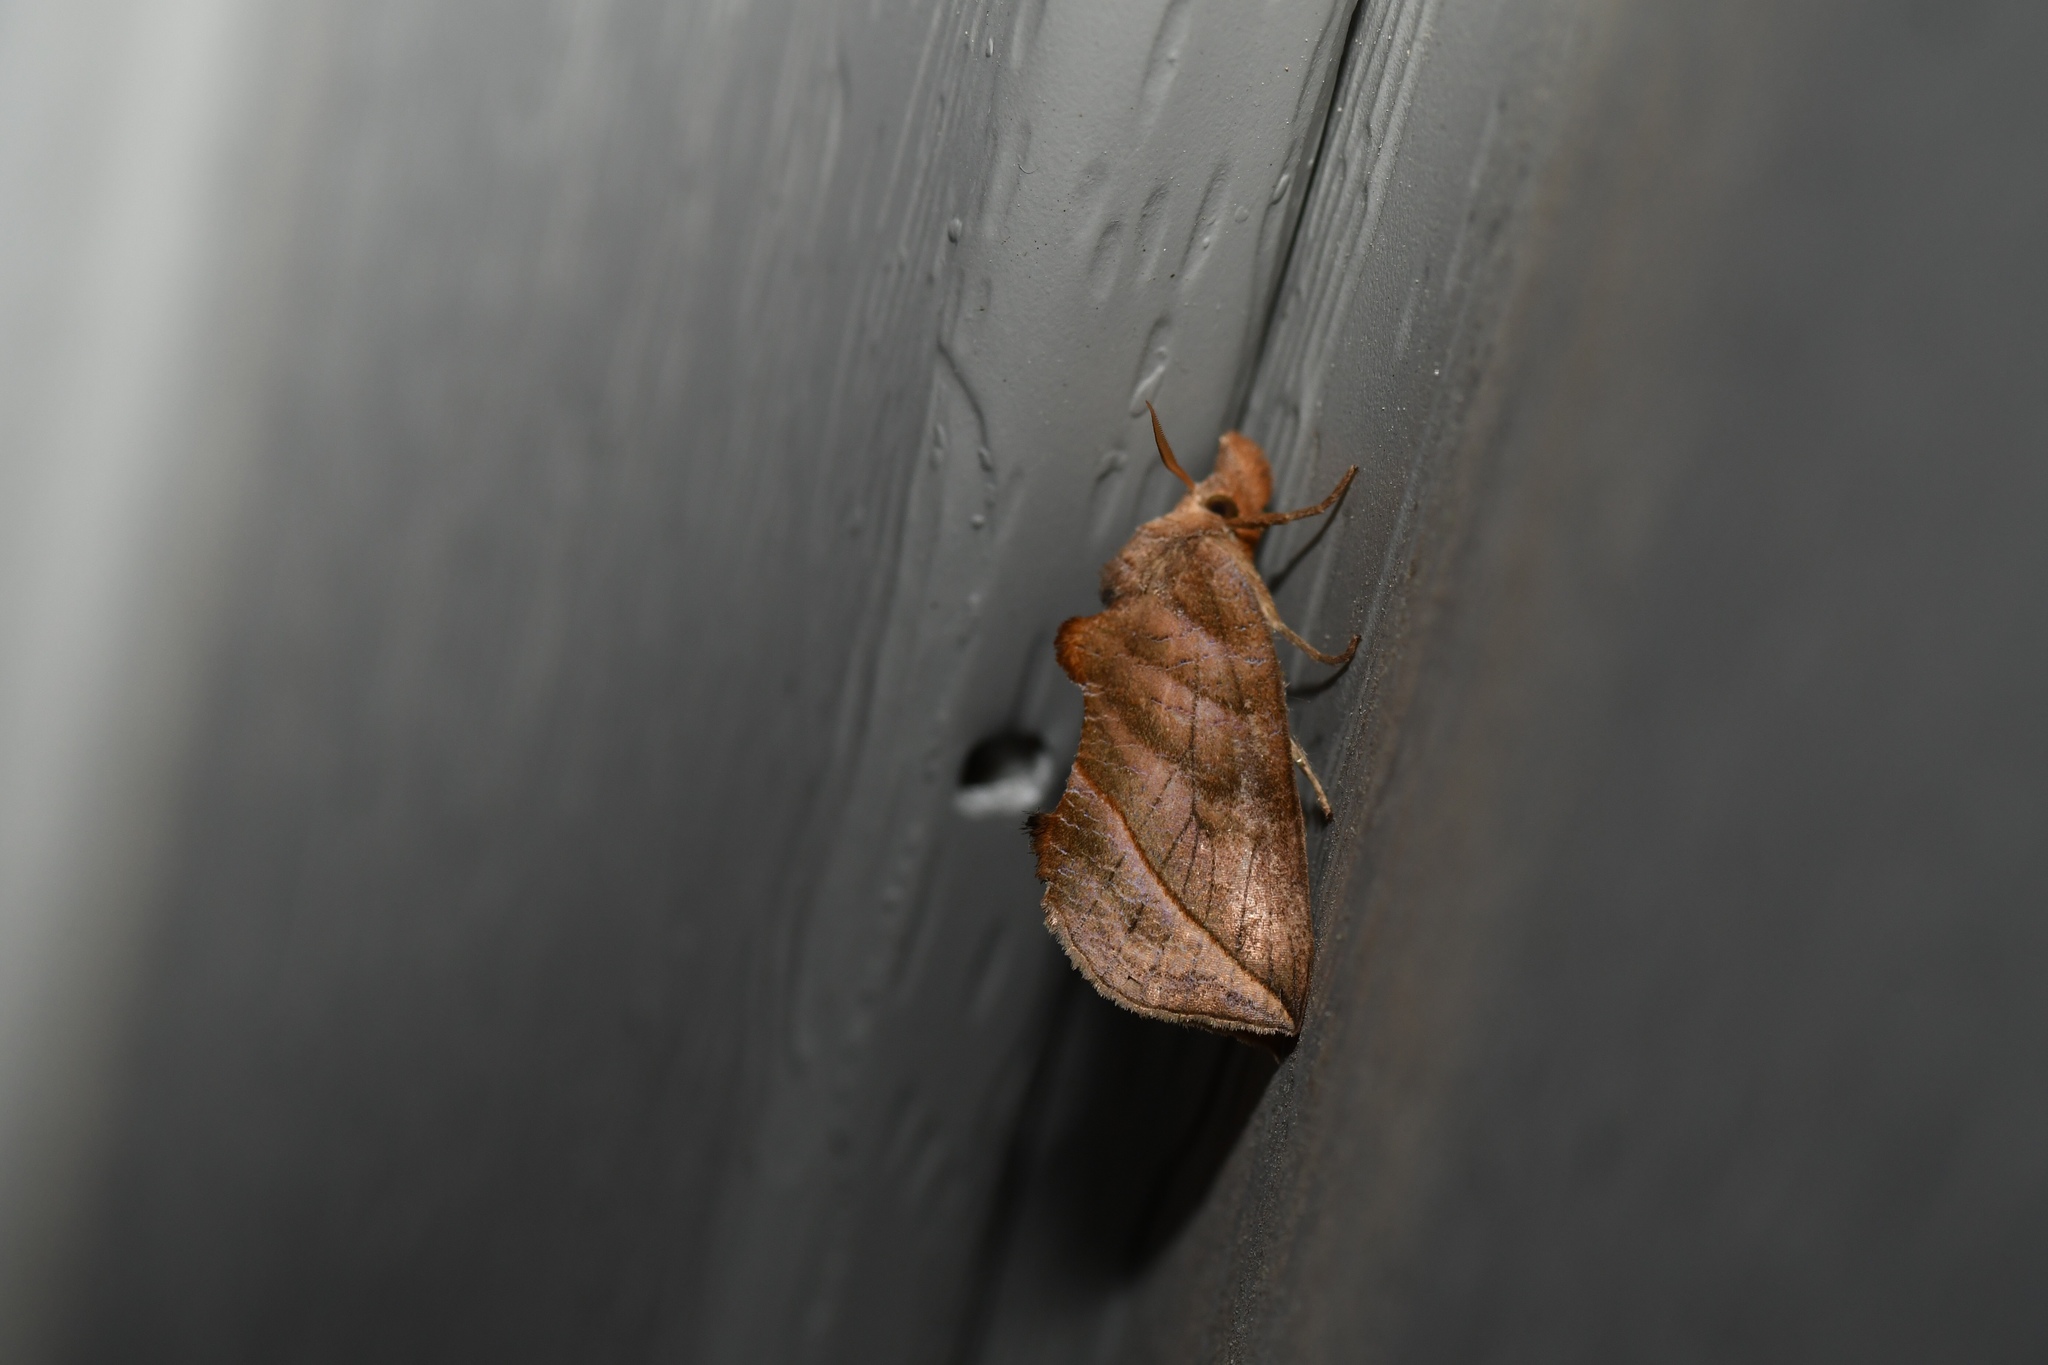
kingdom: Animalia
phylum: Arthropoda
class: Insecta
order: Lepidoptera
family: Erebidae
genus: Calyptra
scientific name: Calyptra canadensis
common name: Canadian owlet
